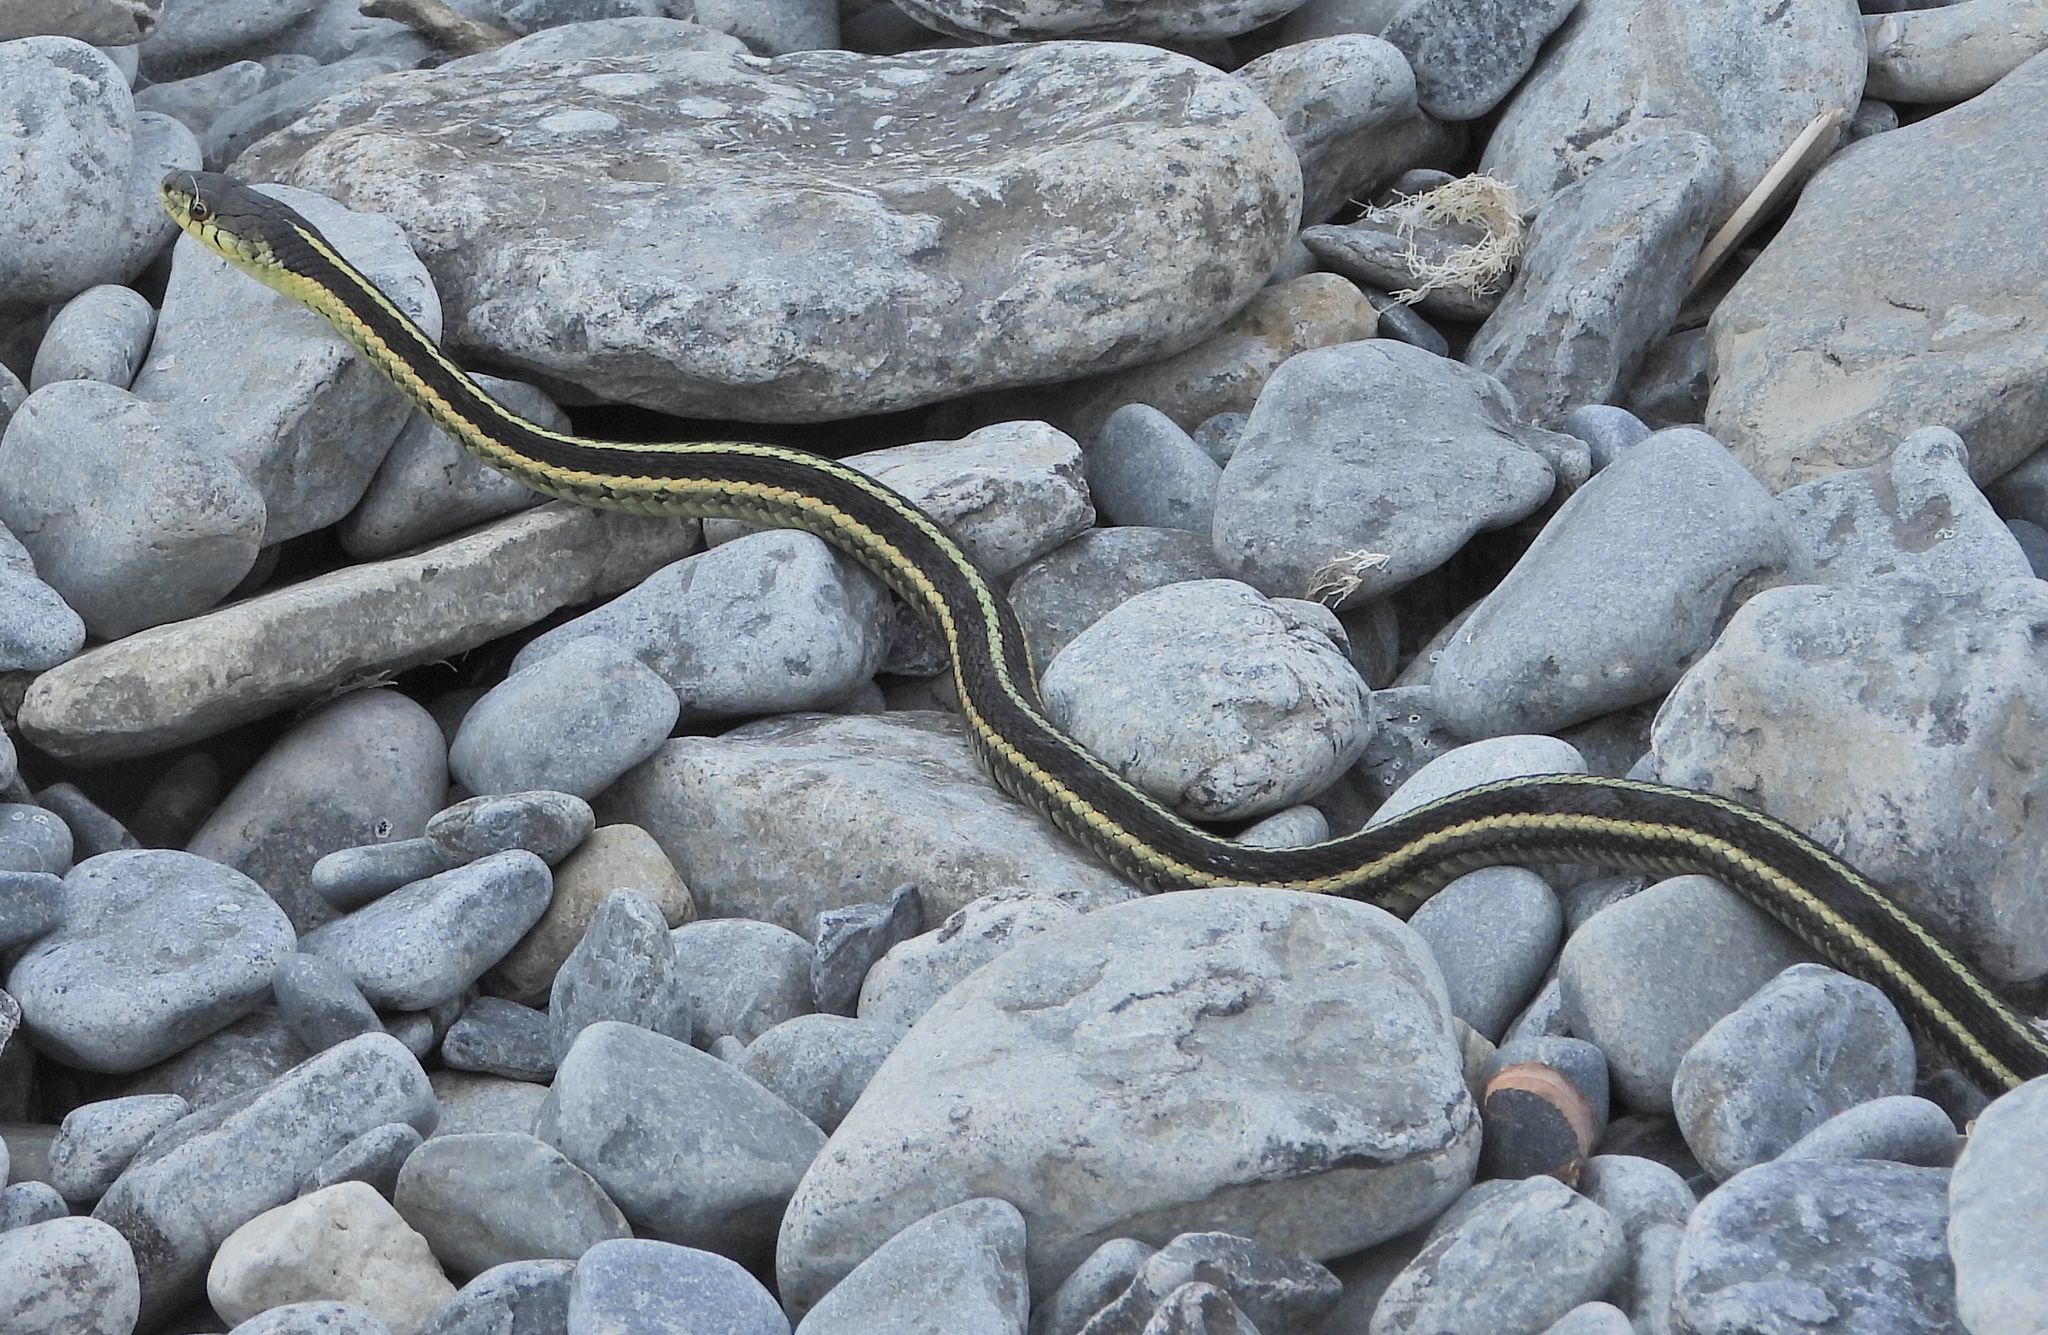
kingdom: Animalia
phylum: Chordata
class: Squamata
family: Colubridae
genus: Thamnophis
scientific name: Thamnophis sirtalis
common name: Common garter snake
